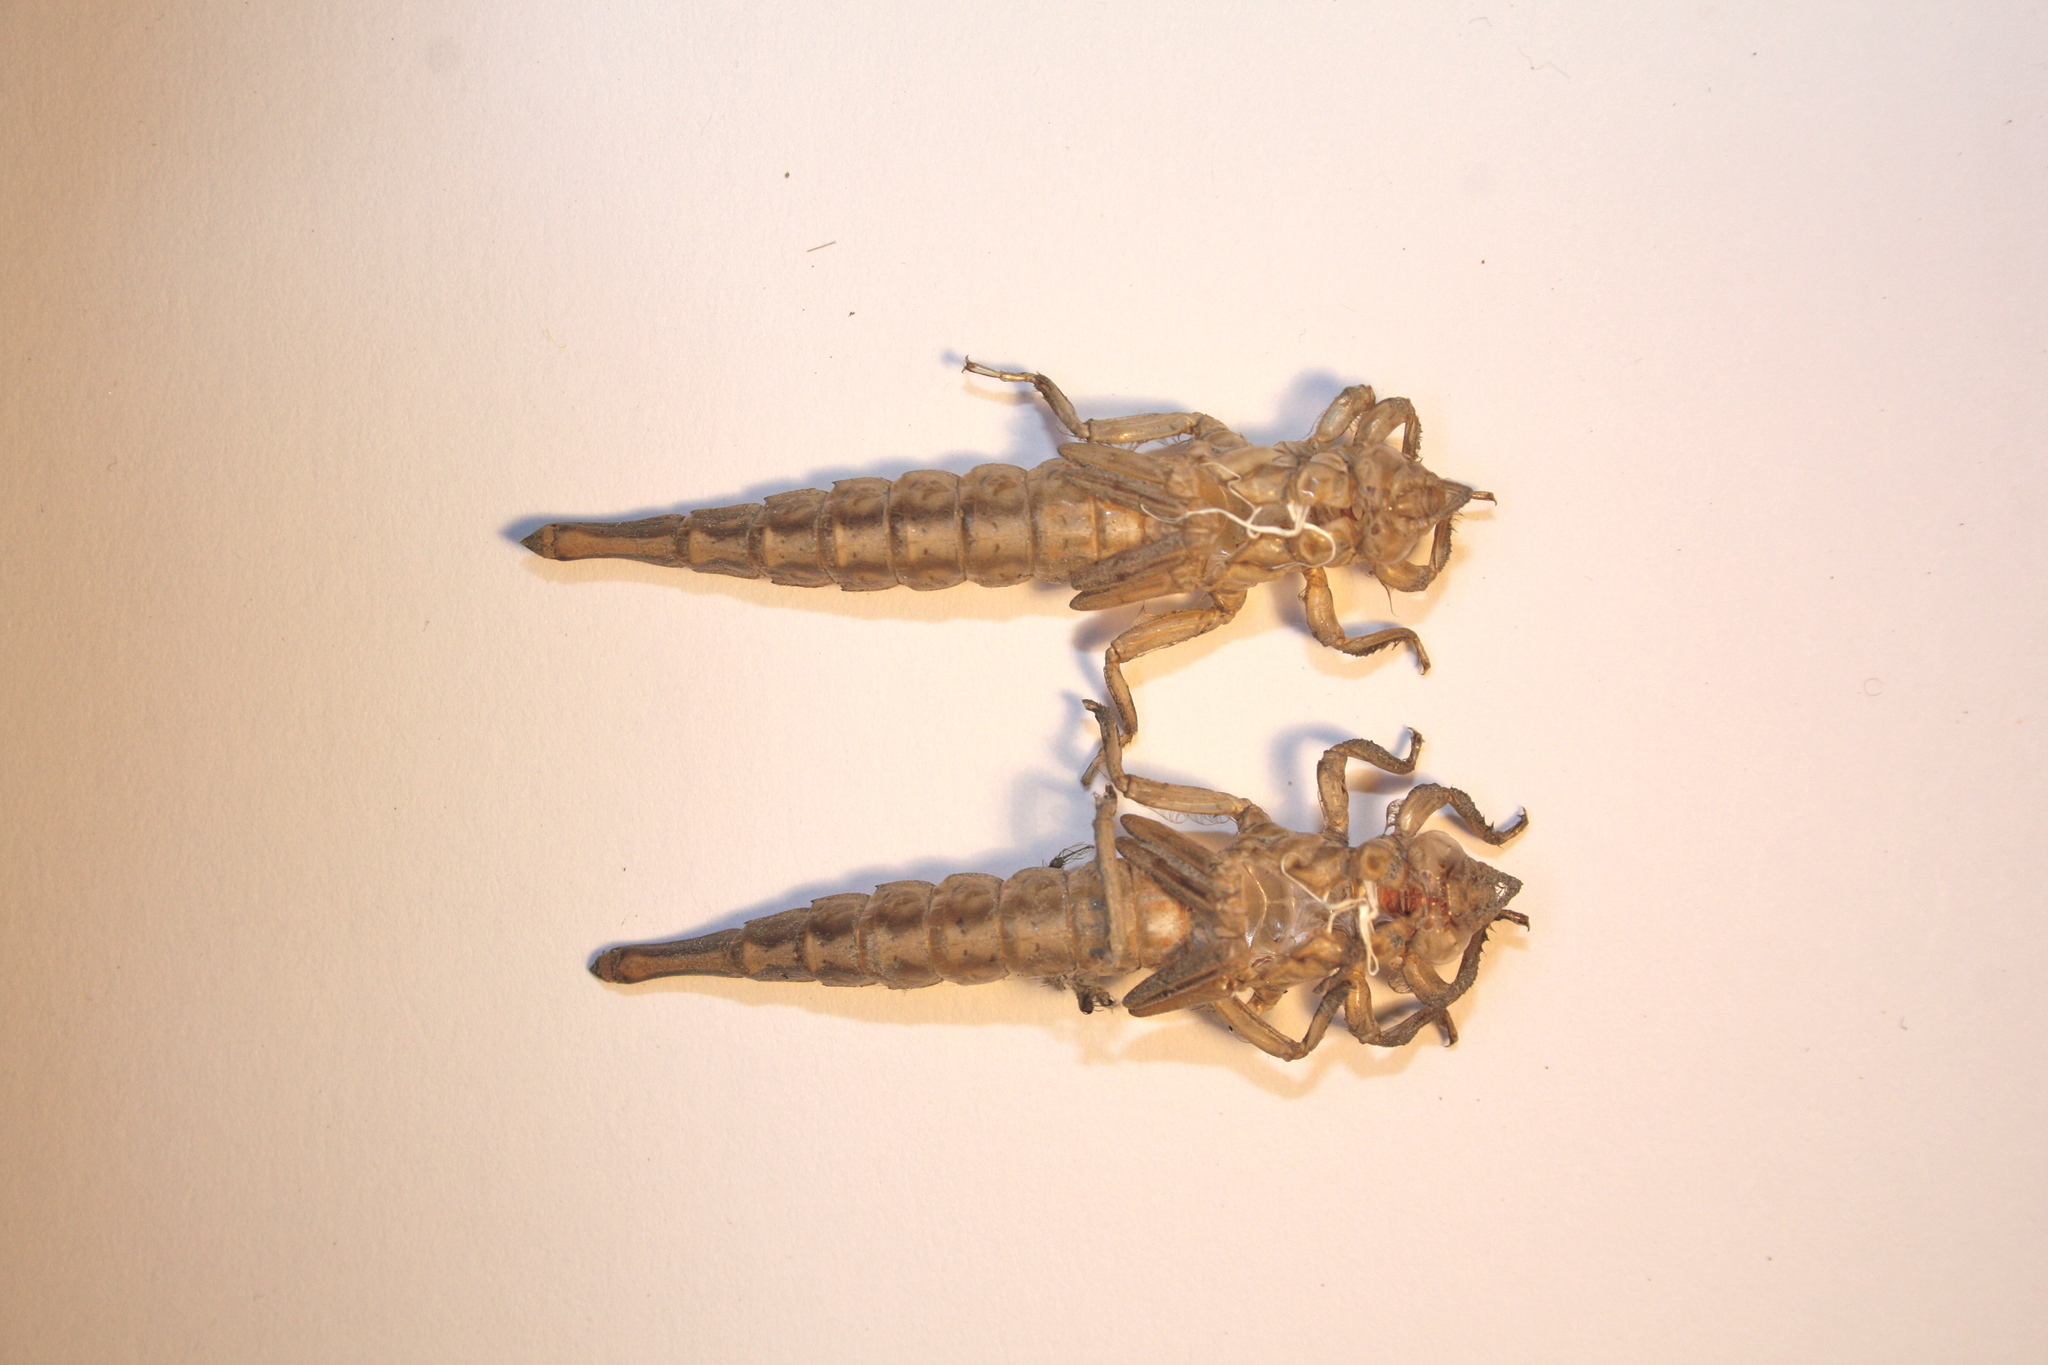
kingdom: Animalia
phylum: Arthropoda
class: Insecta
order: Odonata
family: Gomphidae
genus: Stylurus
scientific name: Stylurus spiniceps
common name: Arrow clubtail
